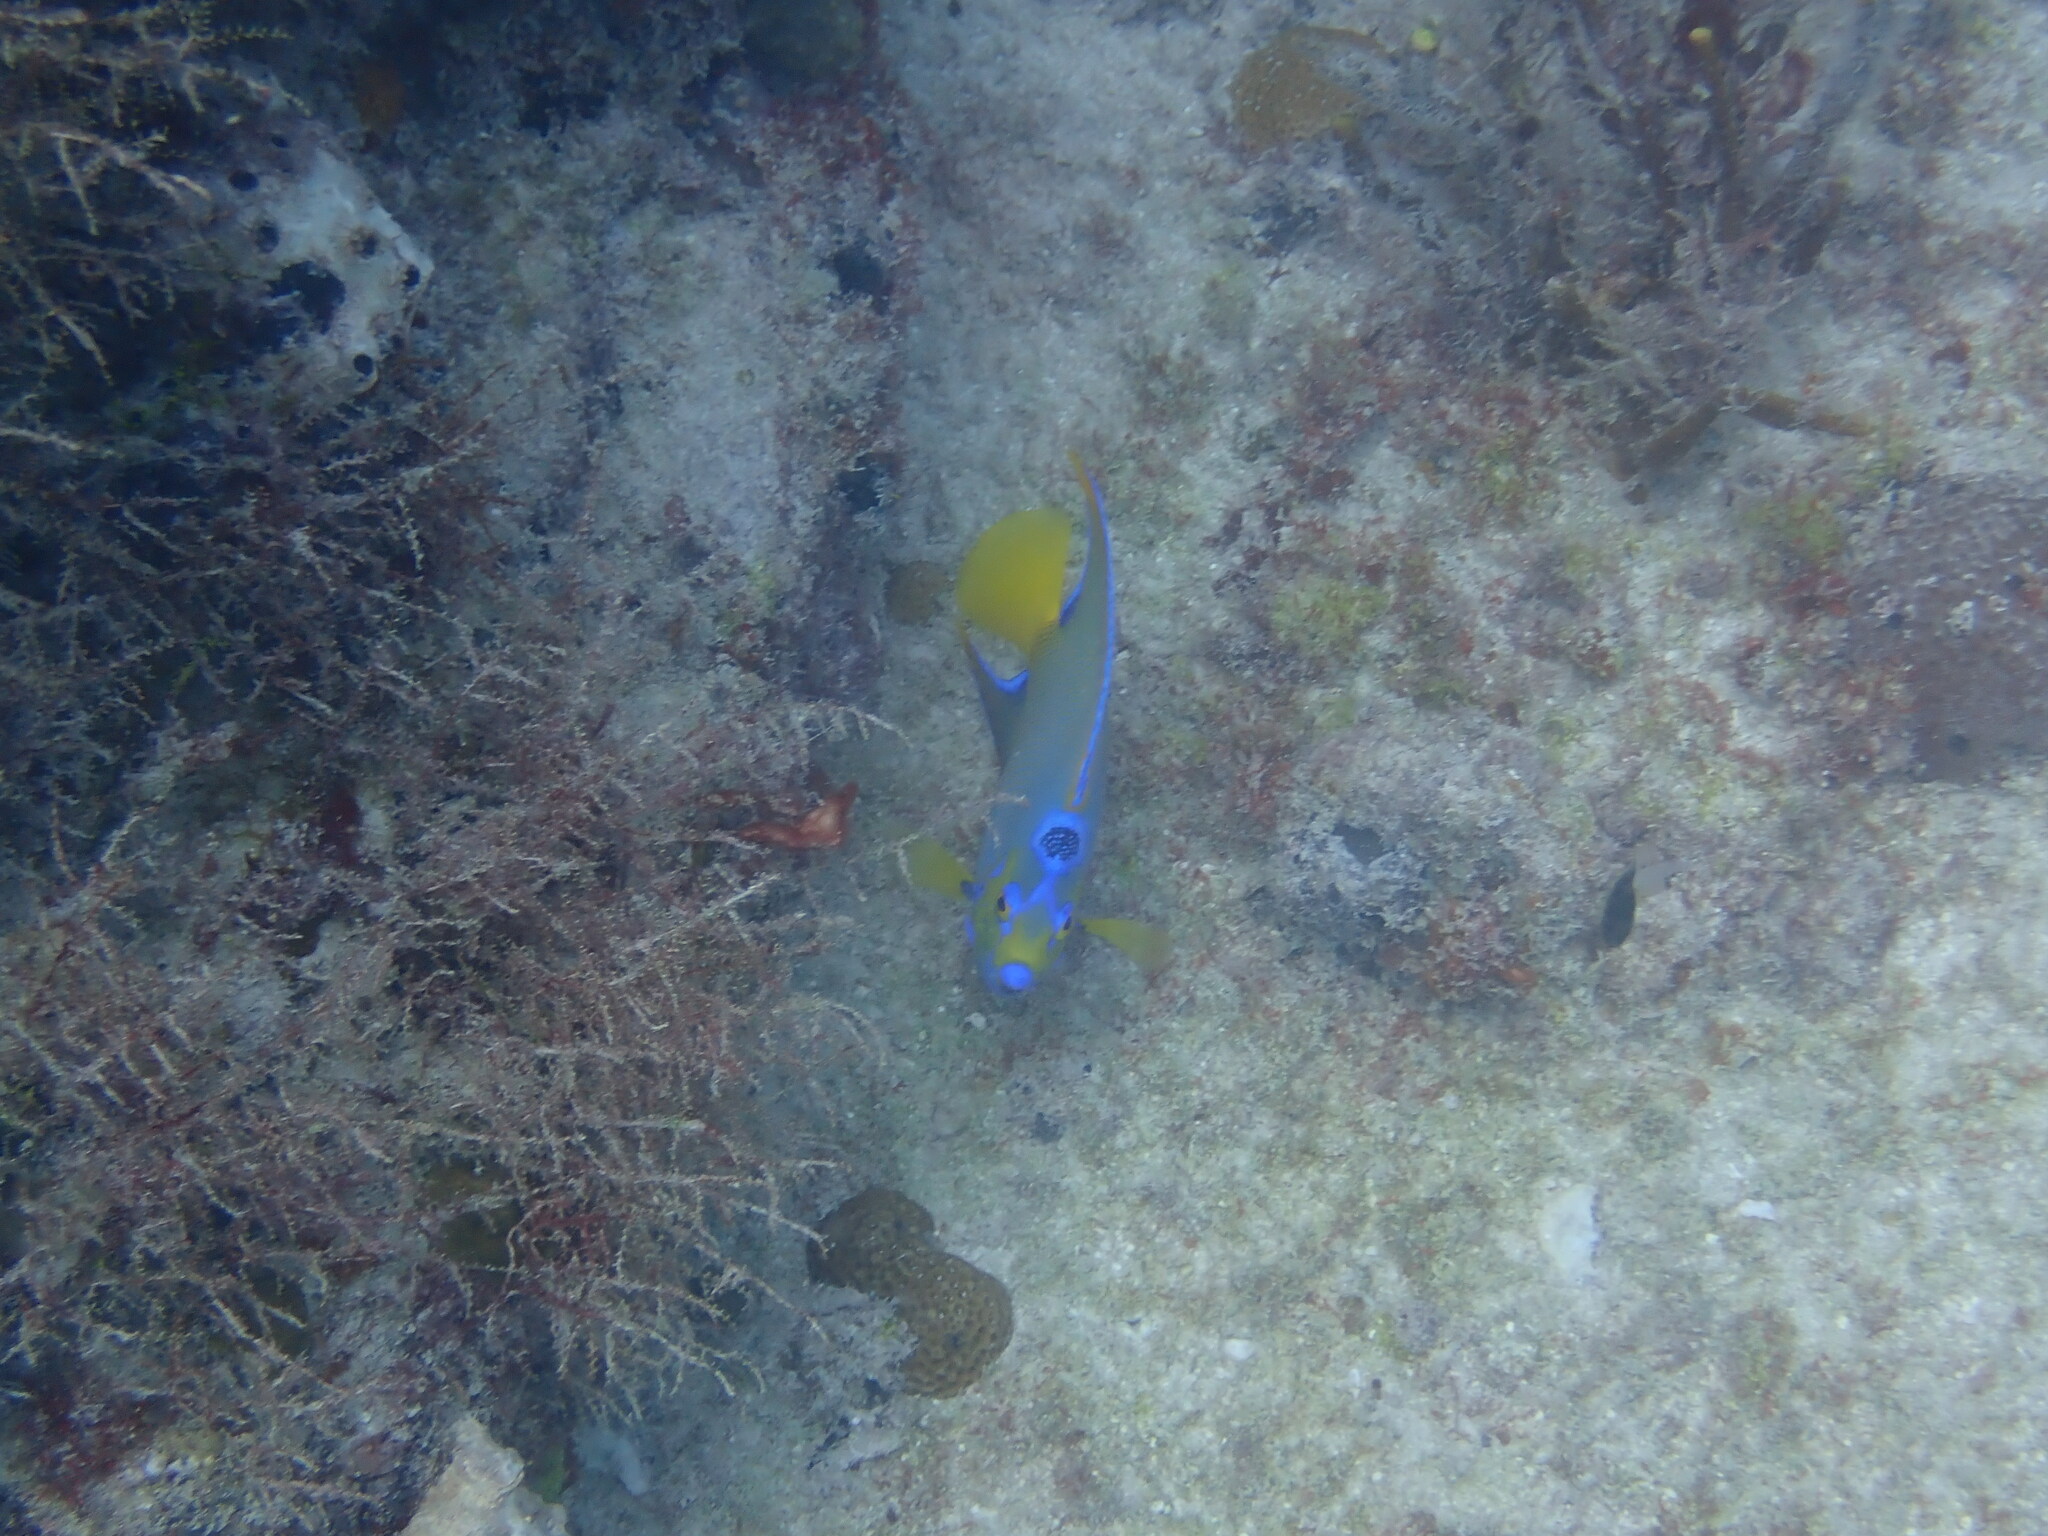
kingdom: Animalia
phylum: Chordata
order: Perciformes
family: Pomacanthidae
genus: Holacanthus
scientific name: Holacanthus ciliaris
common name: Queen angelfish
